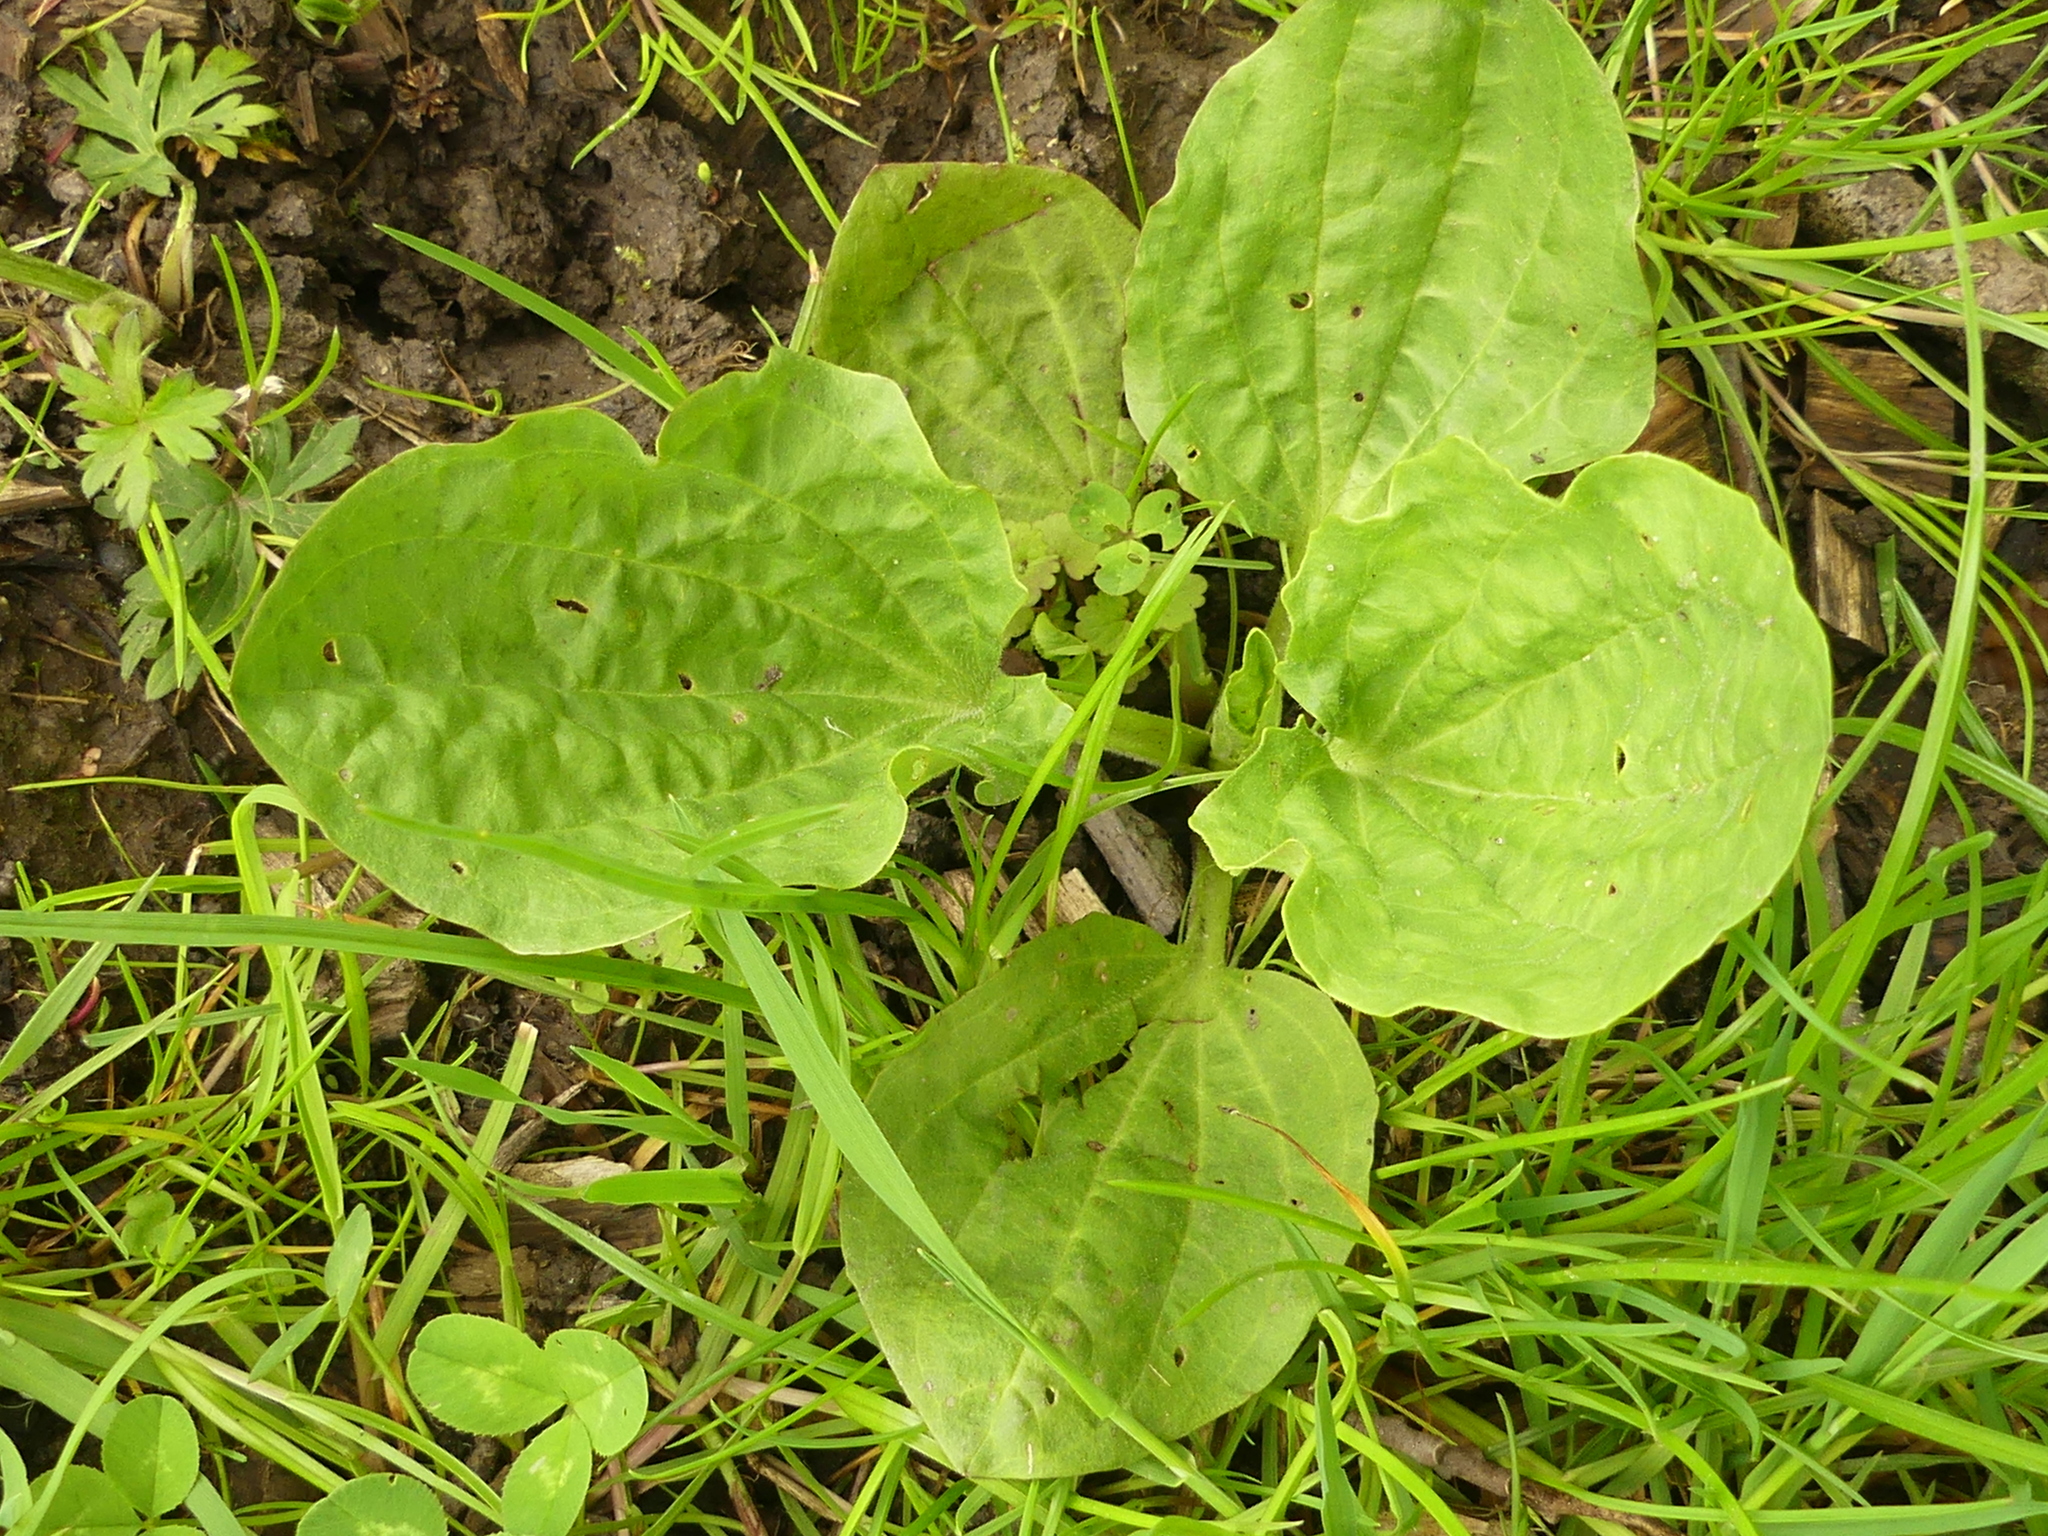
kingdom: Plantae
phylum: Tracheophyta
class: Magnoliopsida
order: Lamiales
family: Plantaginaceae
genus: Plantago
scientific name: Plantago major
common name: Common plantain
